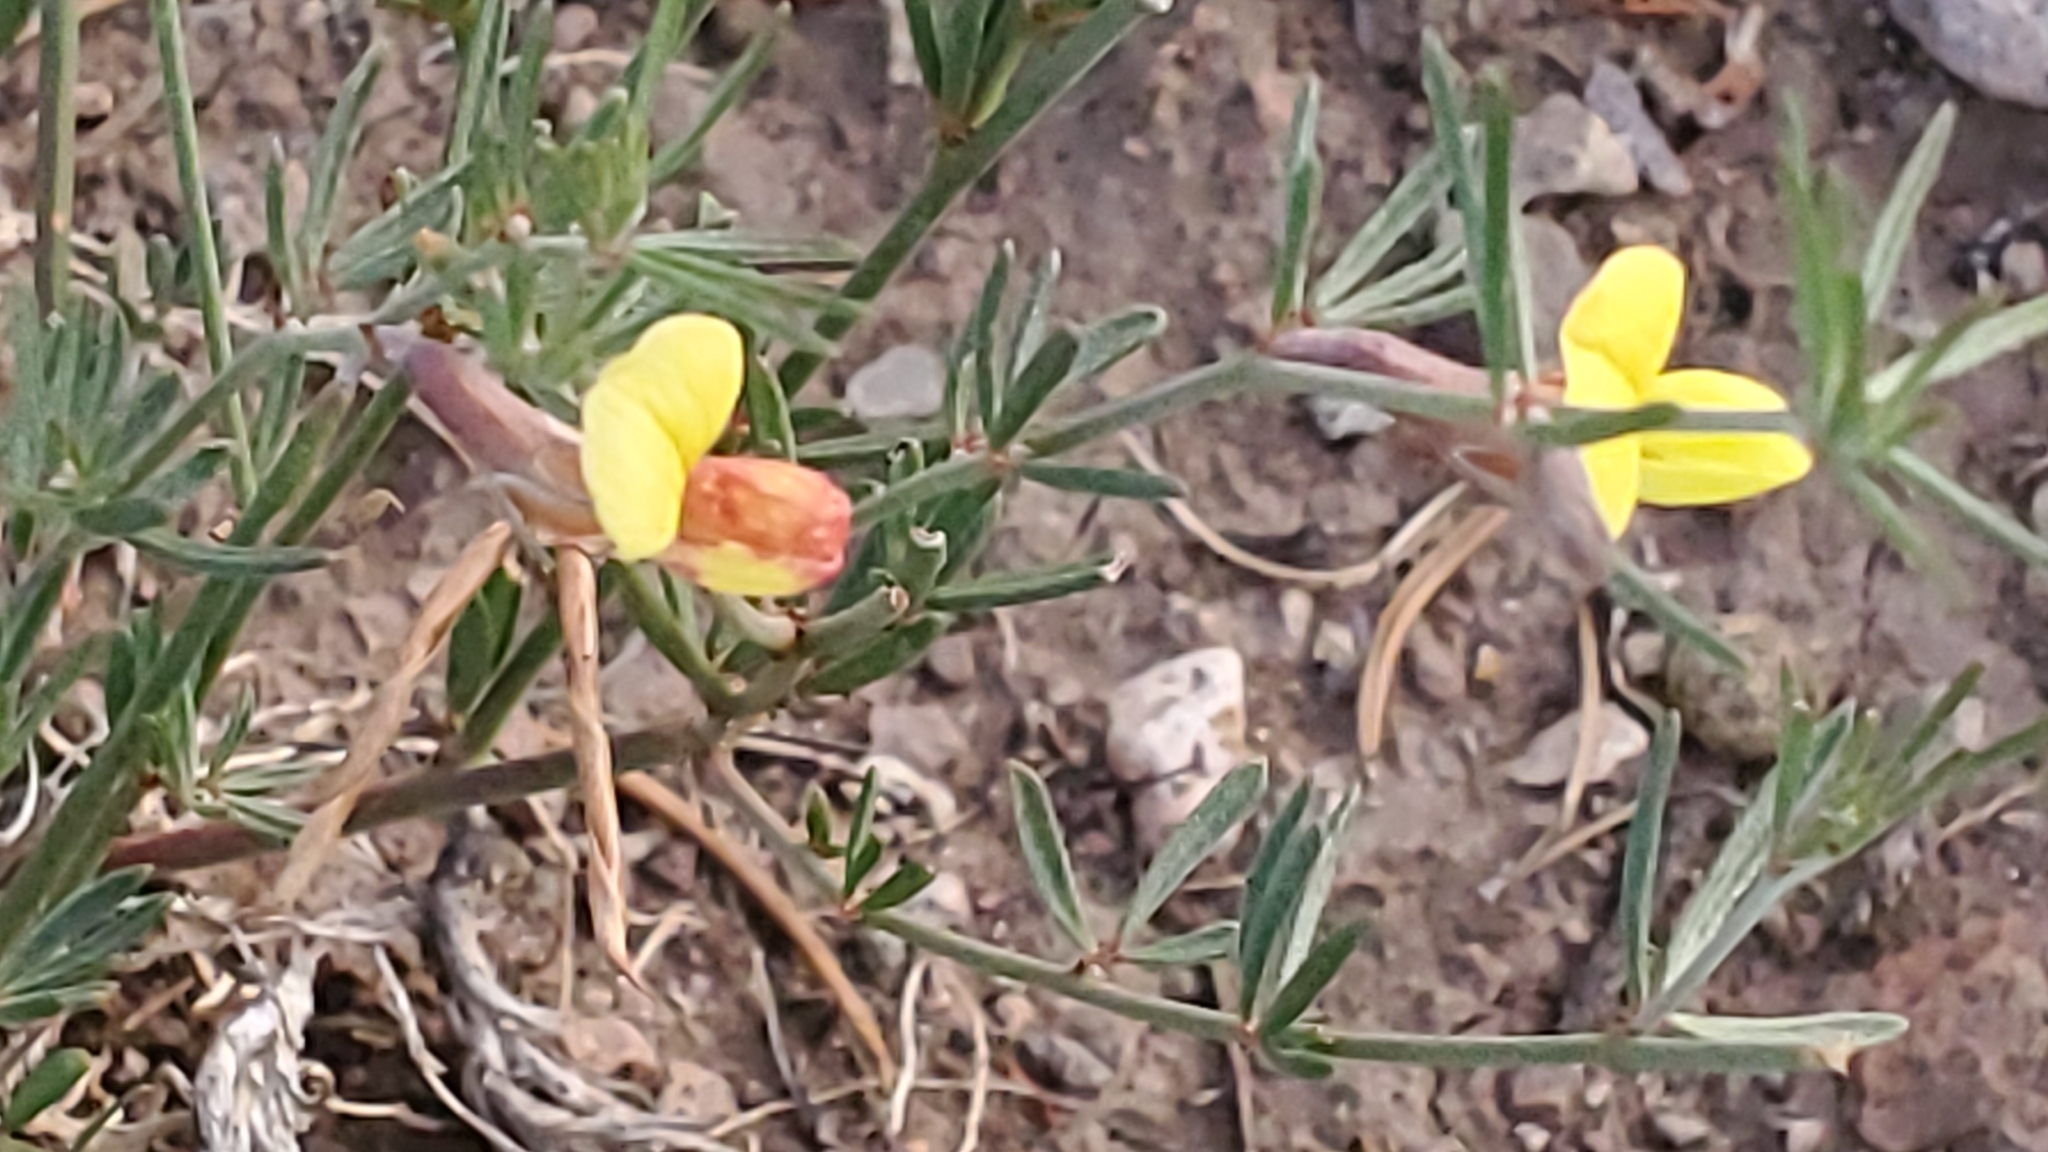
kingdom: Plantae
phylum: Tracheophyta
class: Magnoliopsida
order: Fabales
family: Fabaceae
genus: Acmispon
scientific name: Acmispon wrightii
